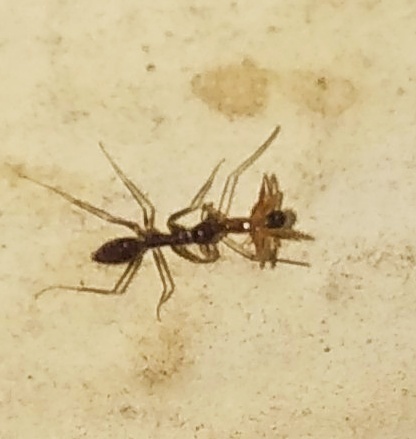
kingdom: Animalia
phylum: Arthropoda
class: Insecta
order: Hymenoptera
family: Formicidae
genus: Paratrechina
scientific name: Paratrechina longicornis
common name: Longhorned crazy ant
